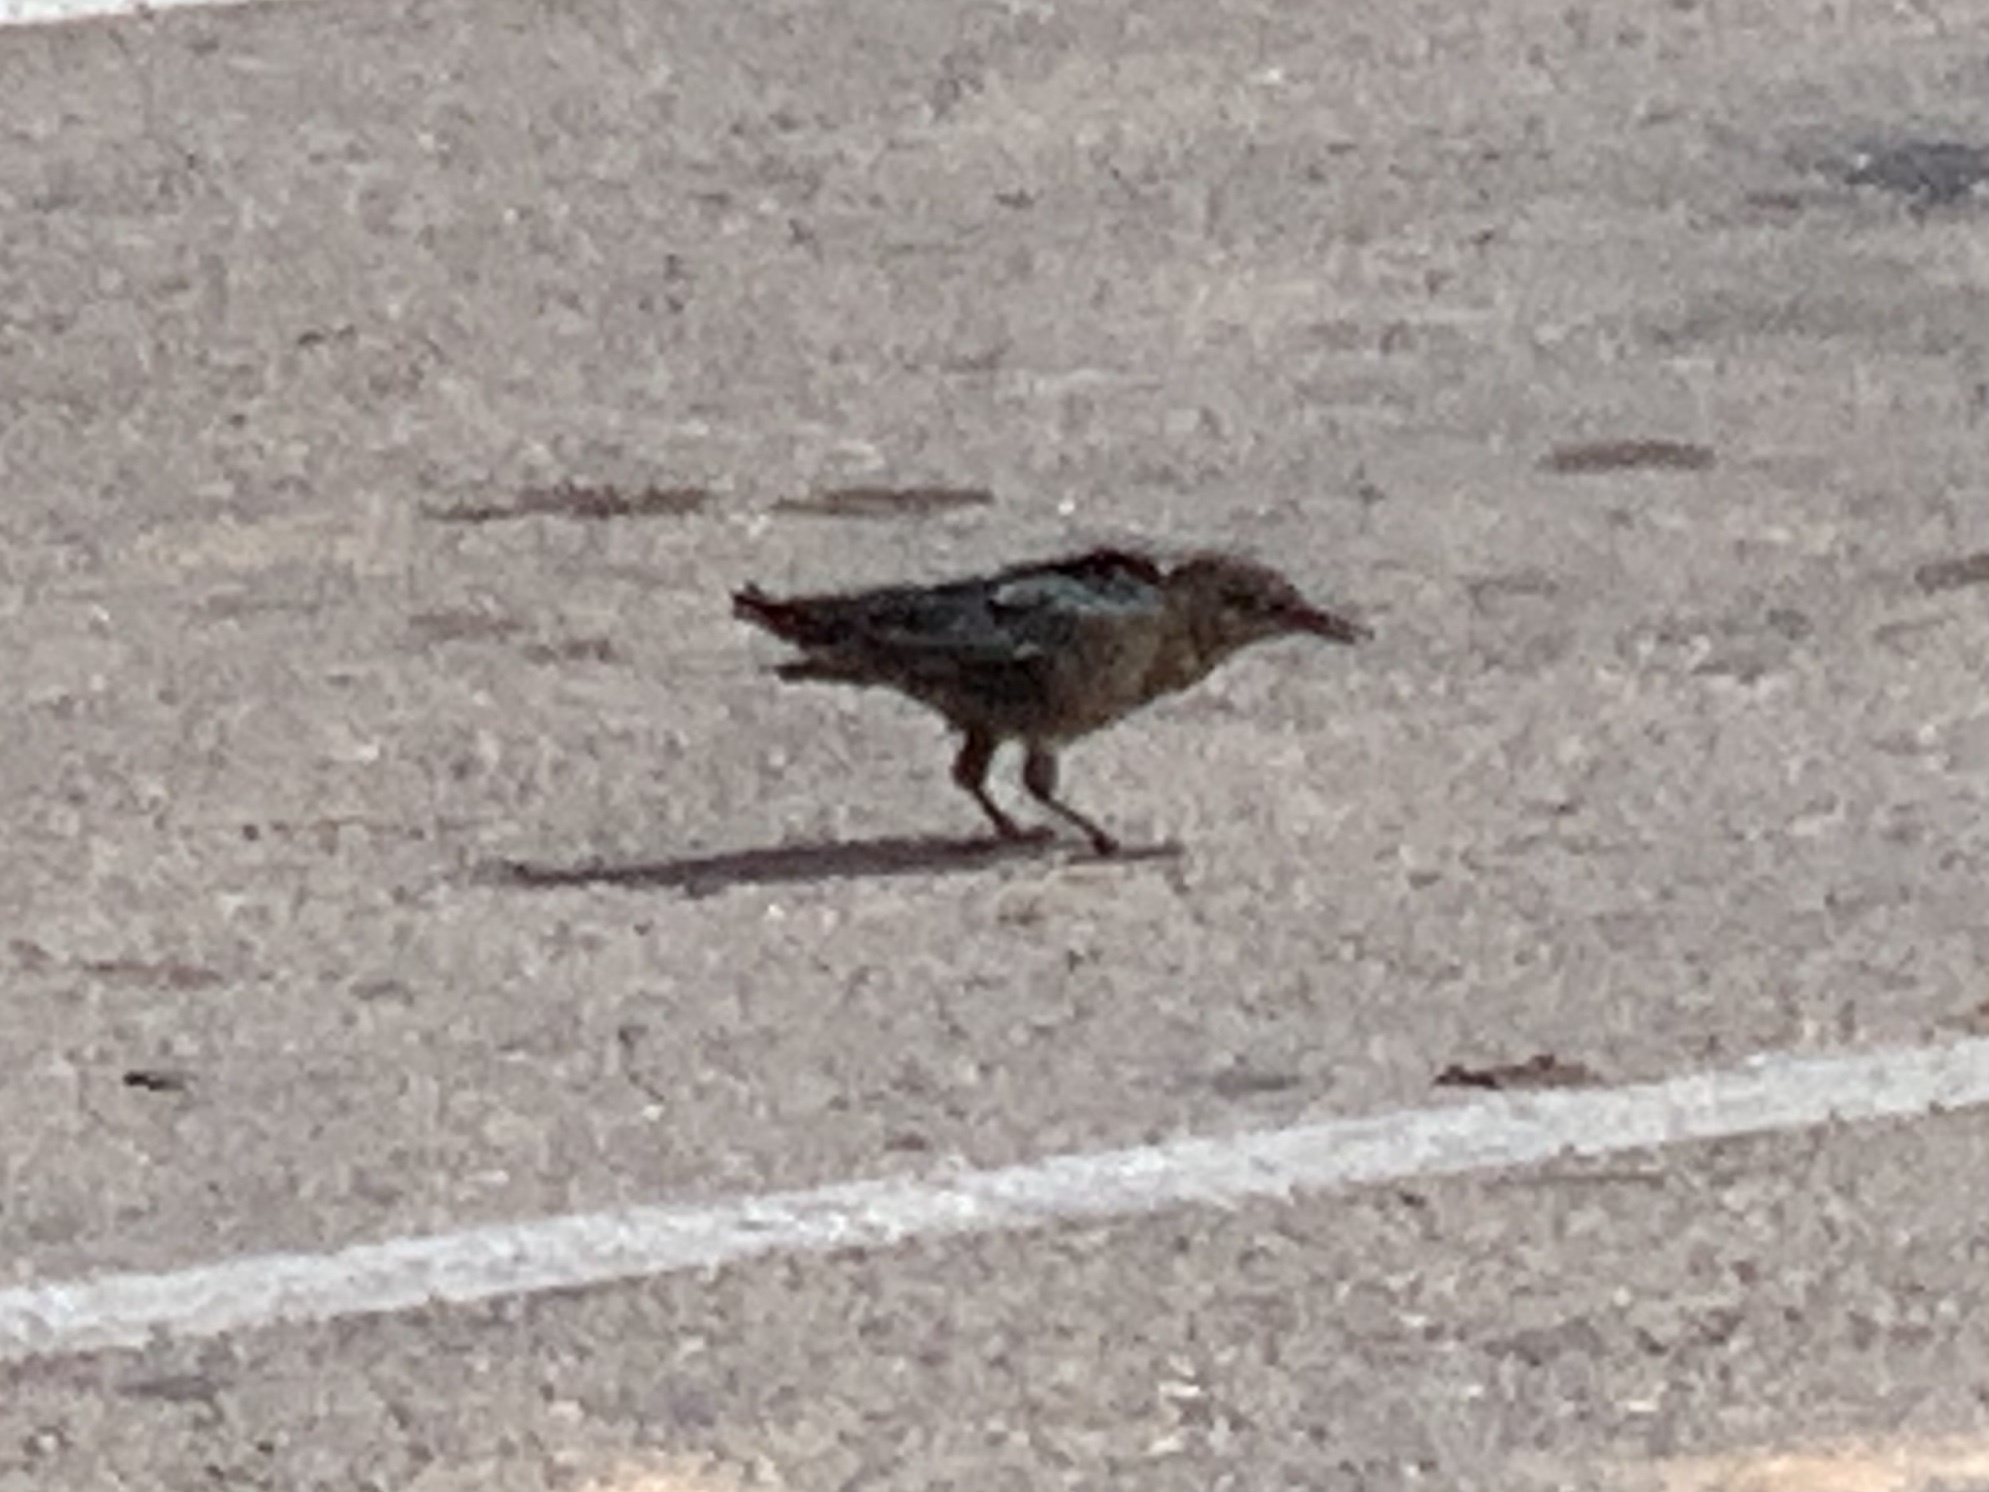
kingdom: Animalia
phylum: Chordata
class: Aves
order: Passeriformes
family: Icteridae
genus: Quiscalus
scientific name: Quiscalus mexicanus
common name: Great-tailed grackle
